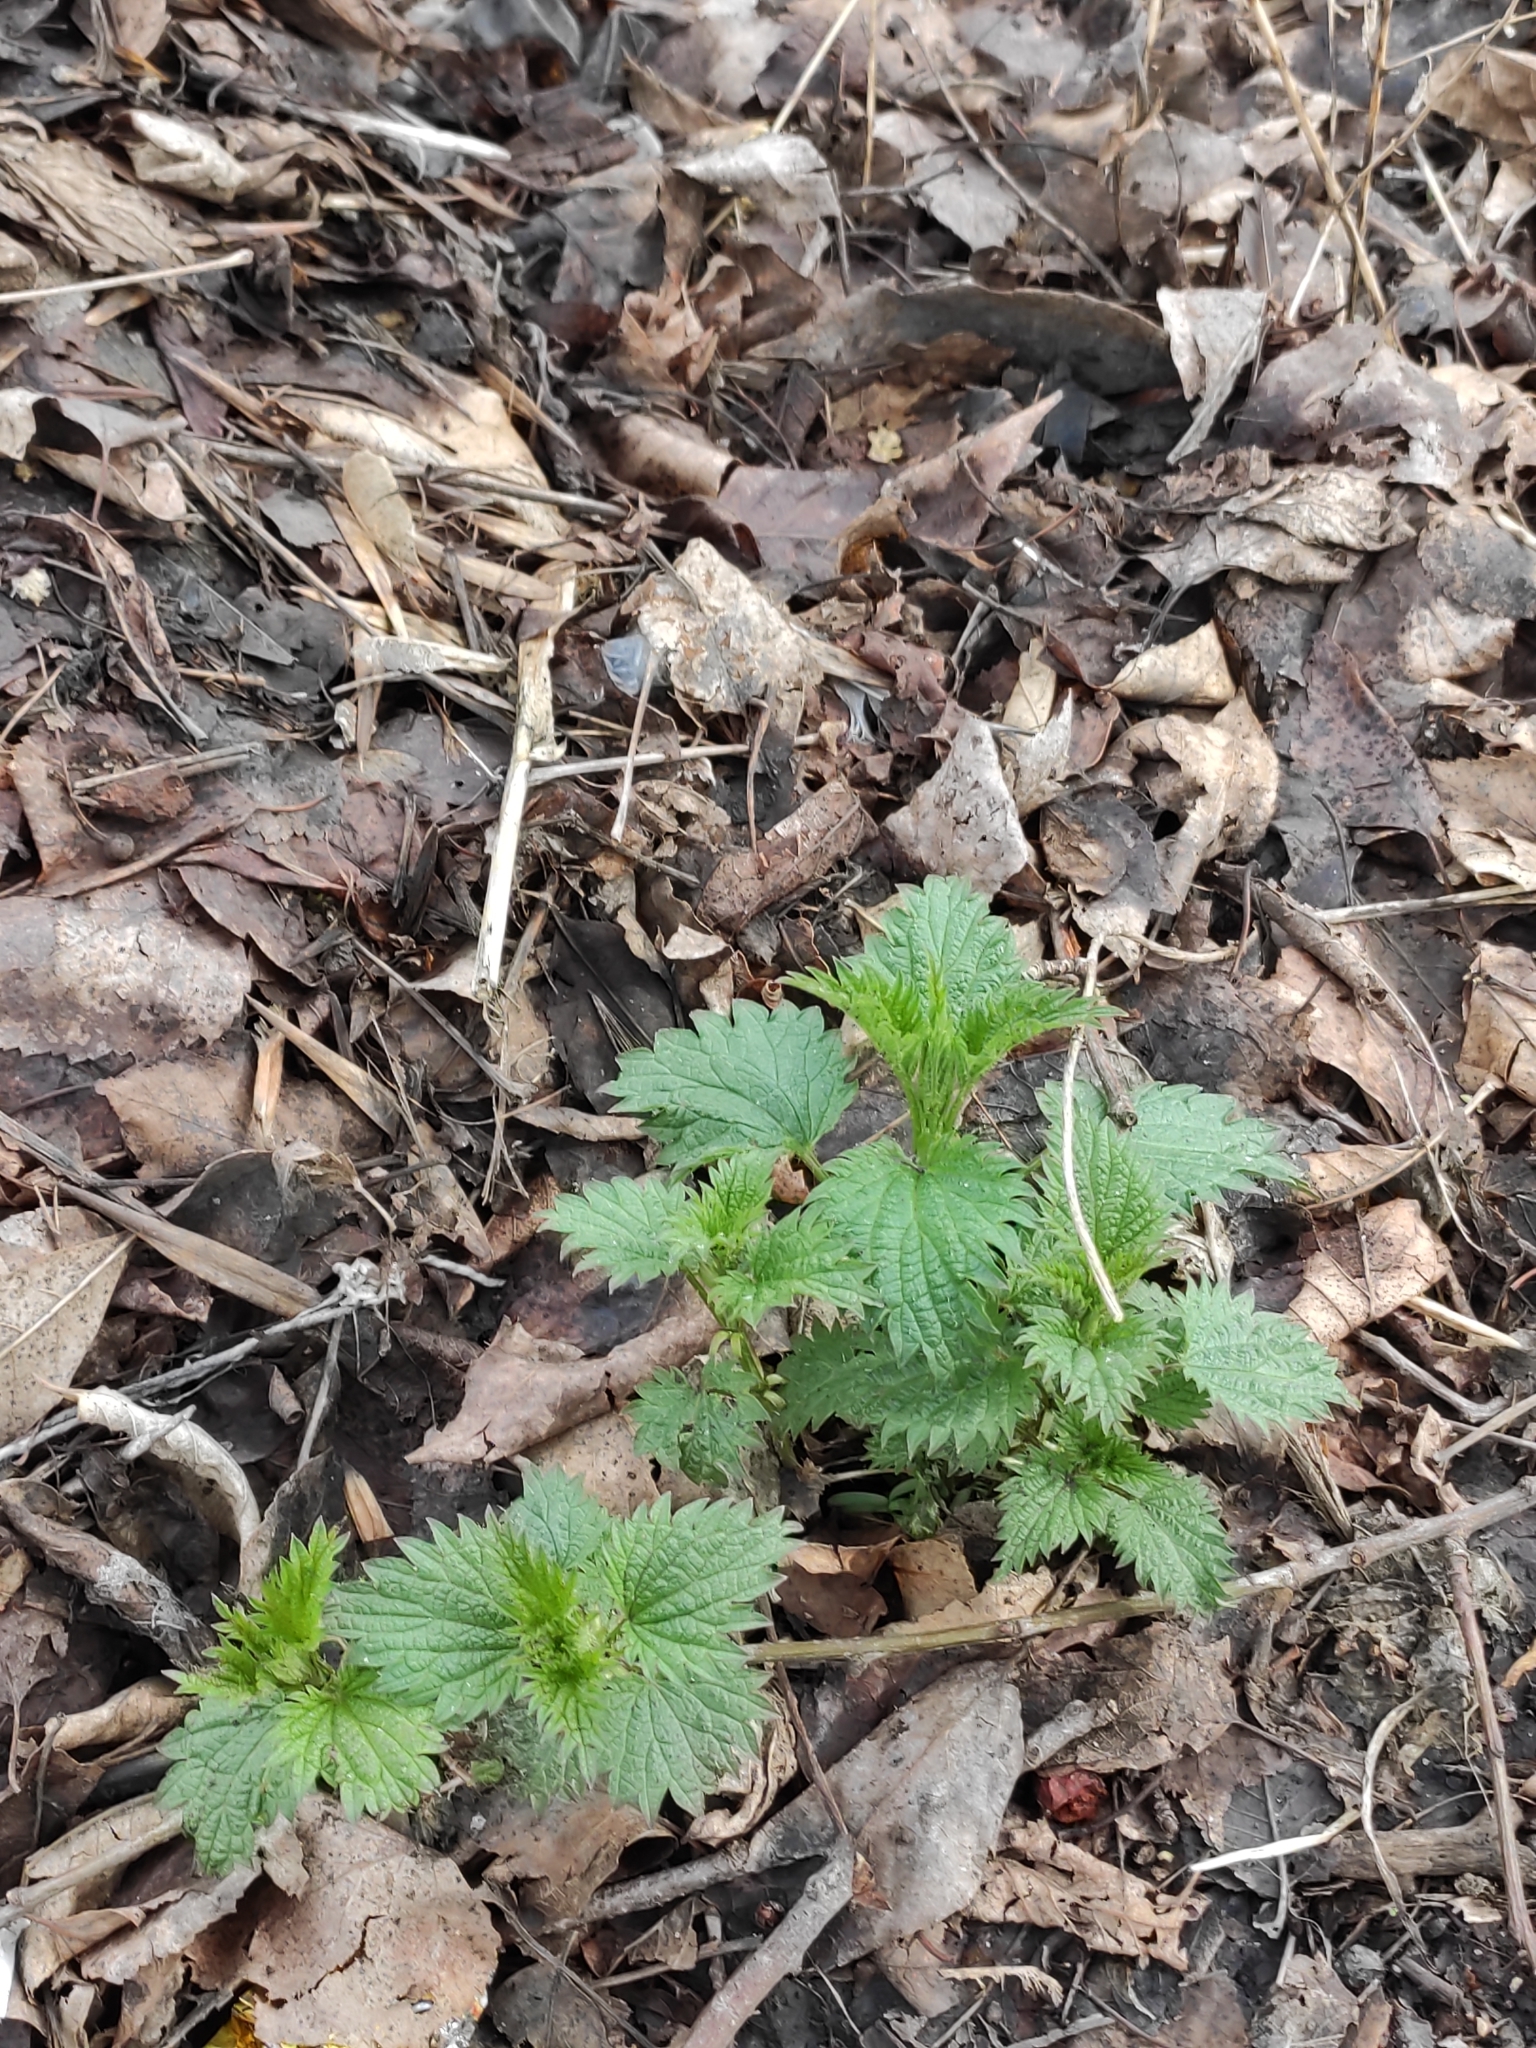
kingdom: Plantae
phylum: Tracheophyta
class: Magnoliopsida
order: Rosales
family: Urticaceae
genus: Urtica
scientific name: Urtica dioica
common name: Common nettle
